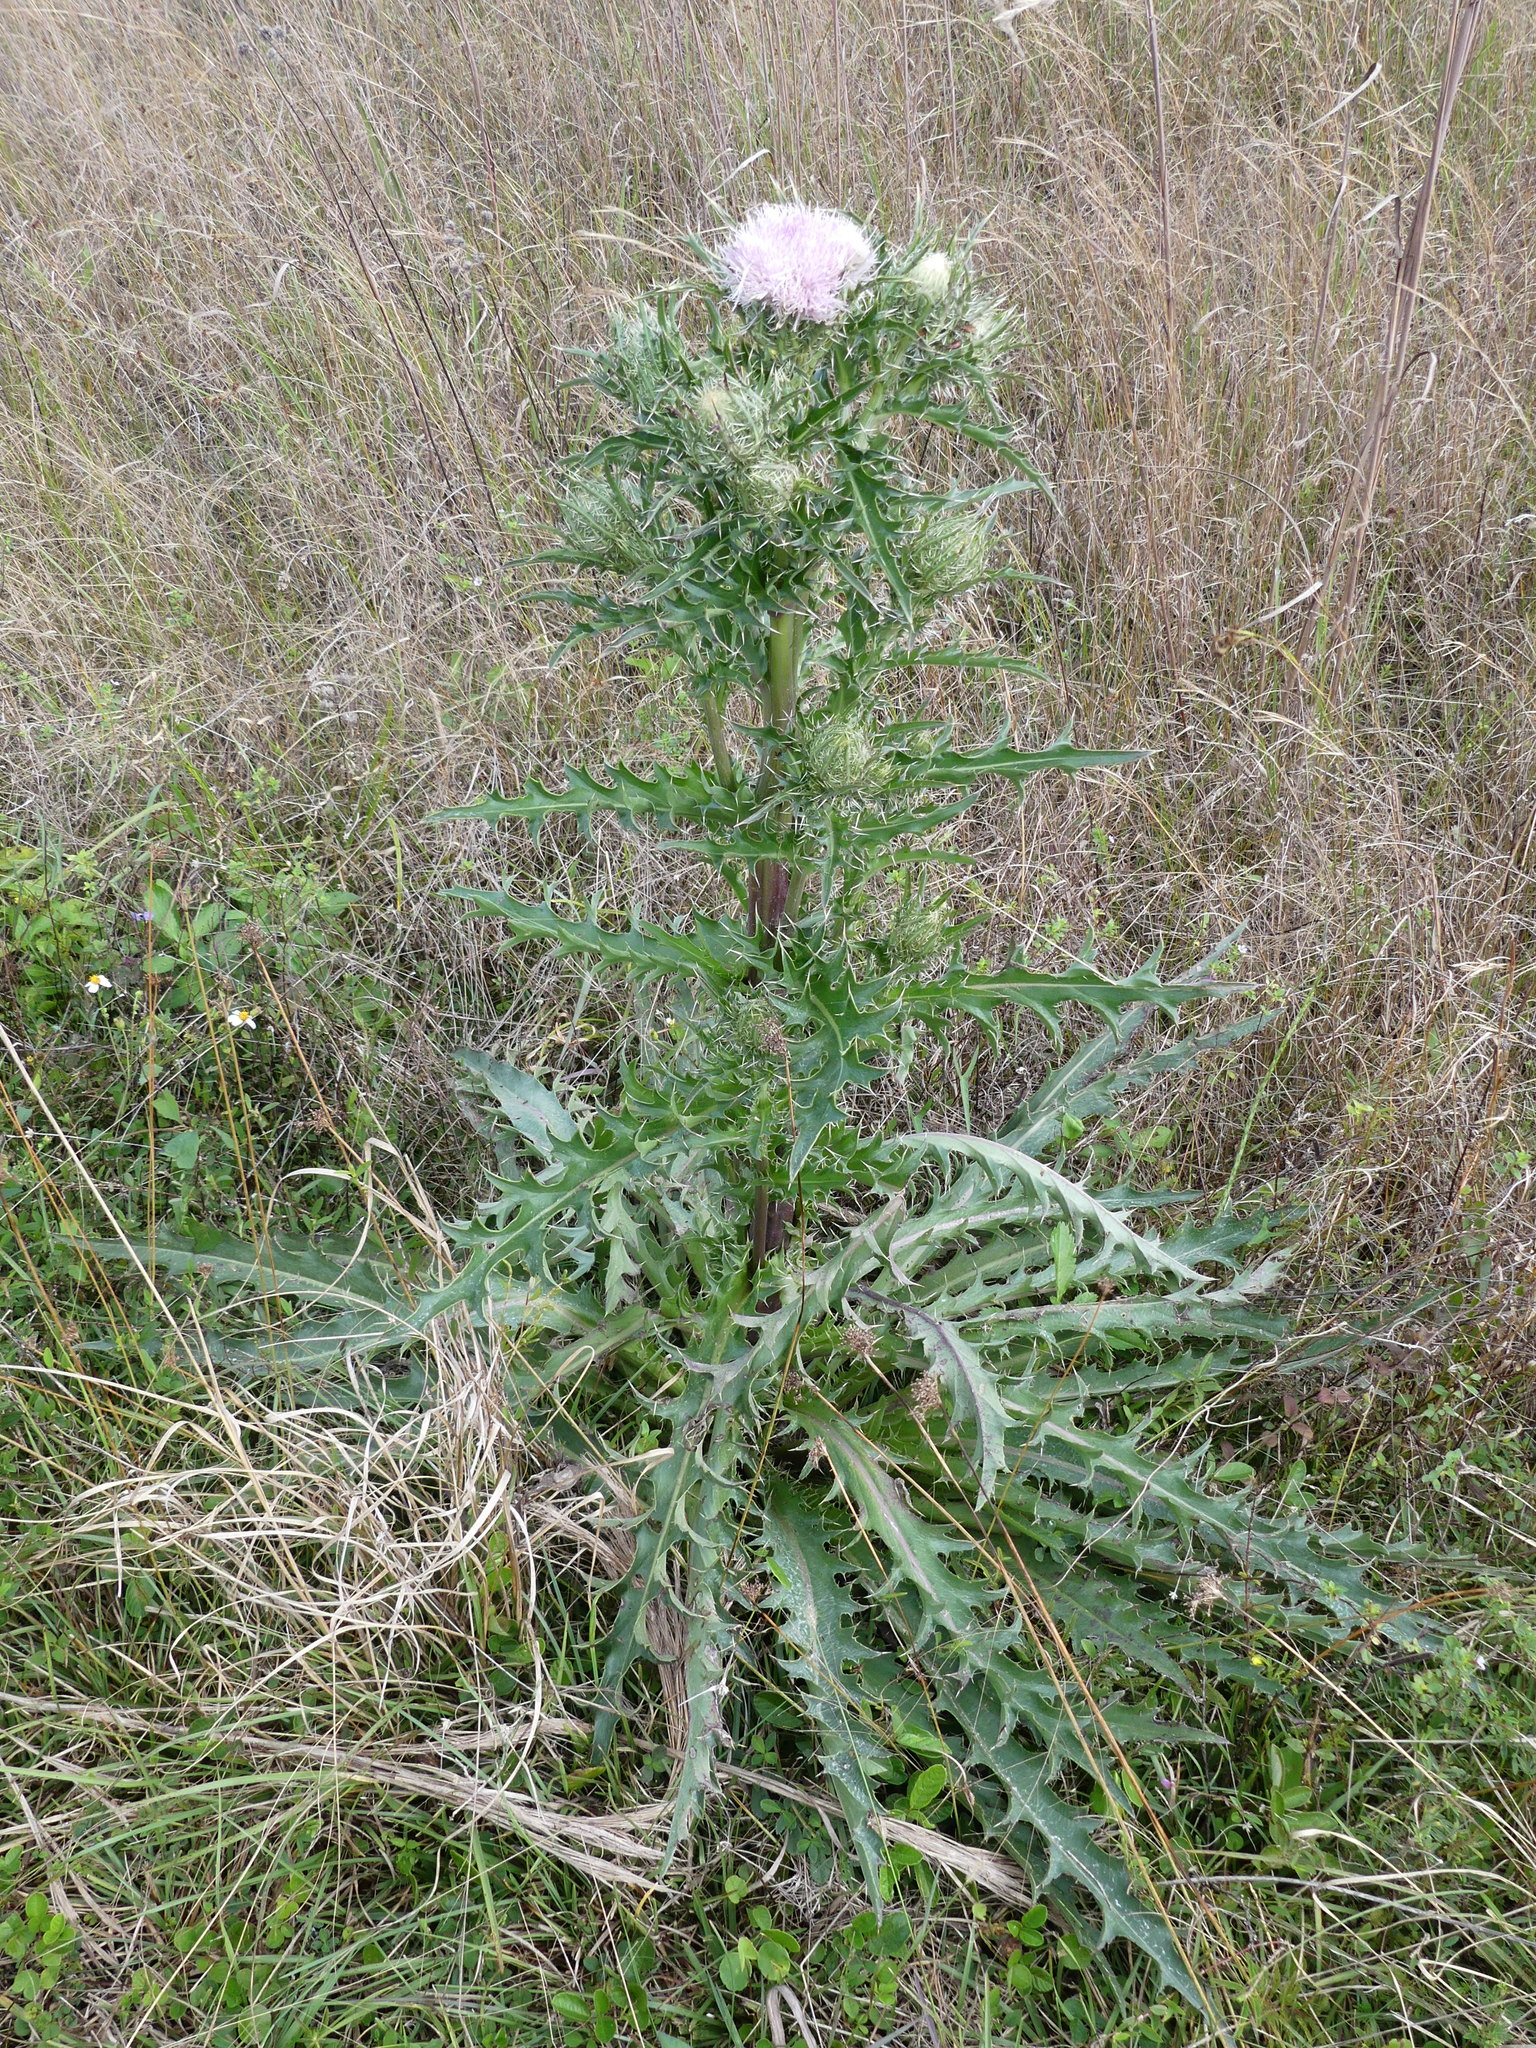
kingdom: Plantae
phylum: Tracheophyta
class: Magnoliopsida
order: Asterales
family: Asteraceae
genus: Cirsium
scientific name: Cirsium horridulum
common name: Bristly thistle
